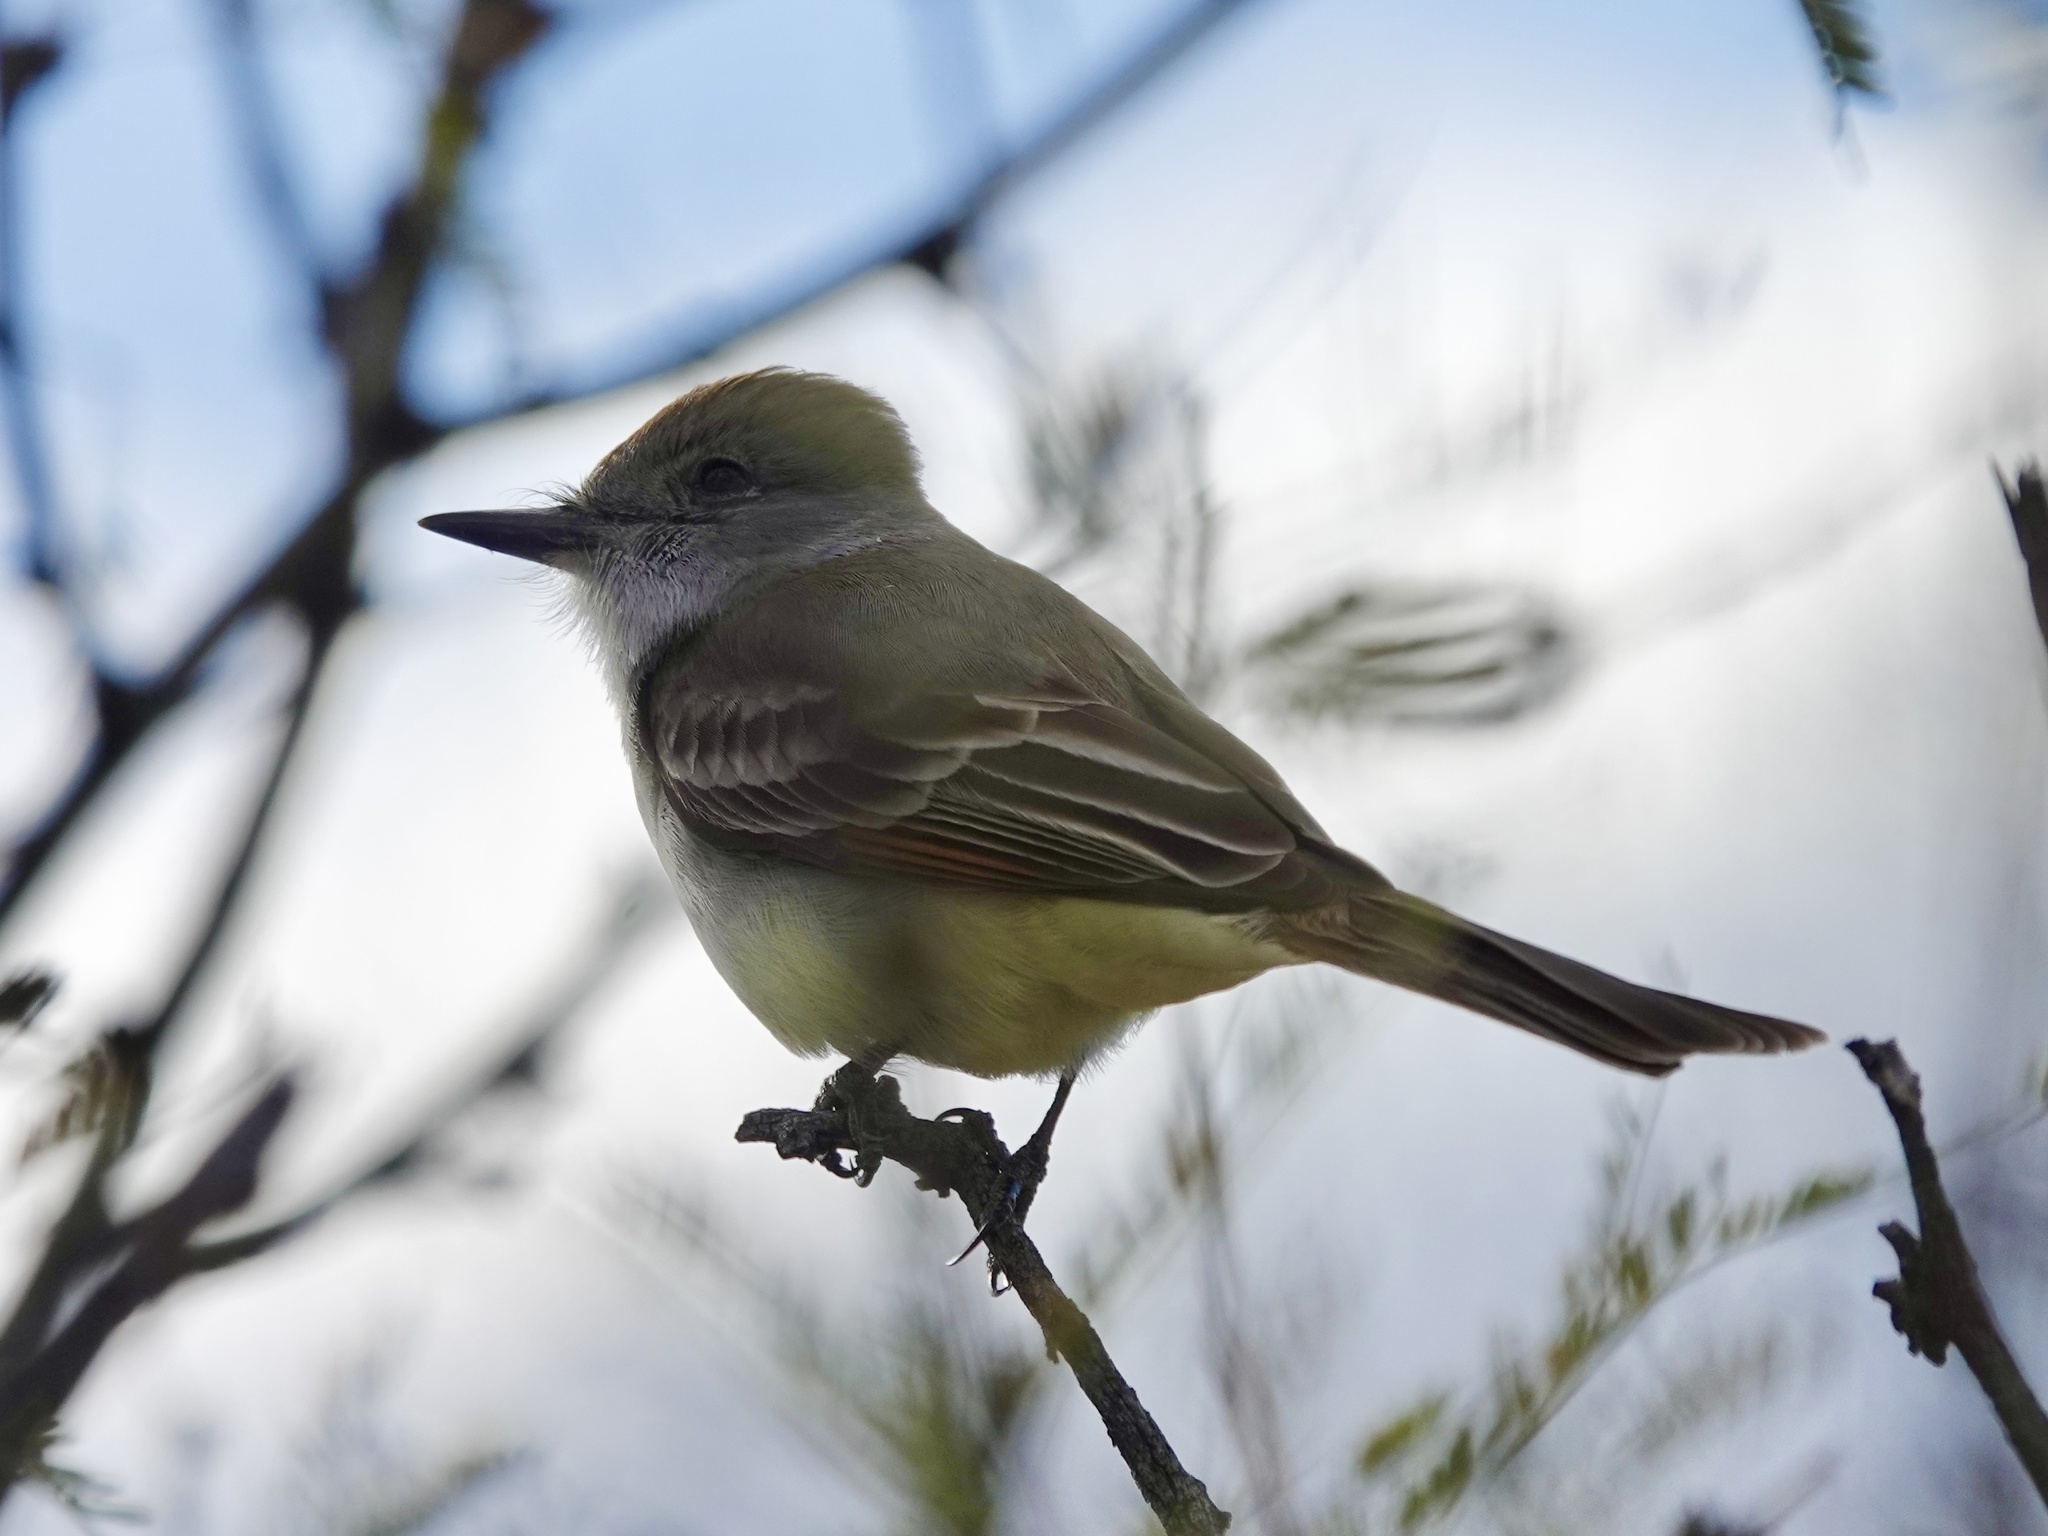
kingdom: Animalia
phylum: Chordata
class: Aves
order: Passeriformes
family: Tyrannidae
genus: Myiarchus
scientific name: Myiarchus cinerascens
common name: Ash-throated flycatcher
